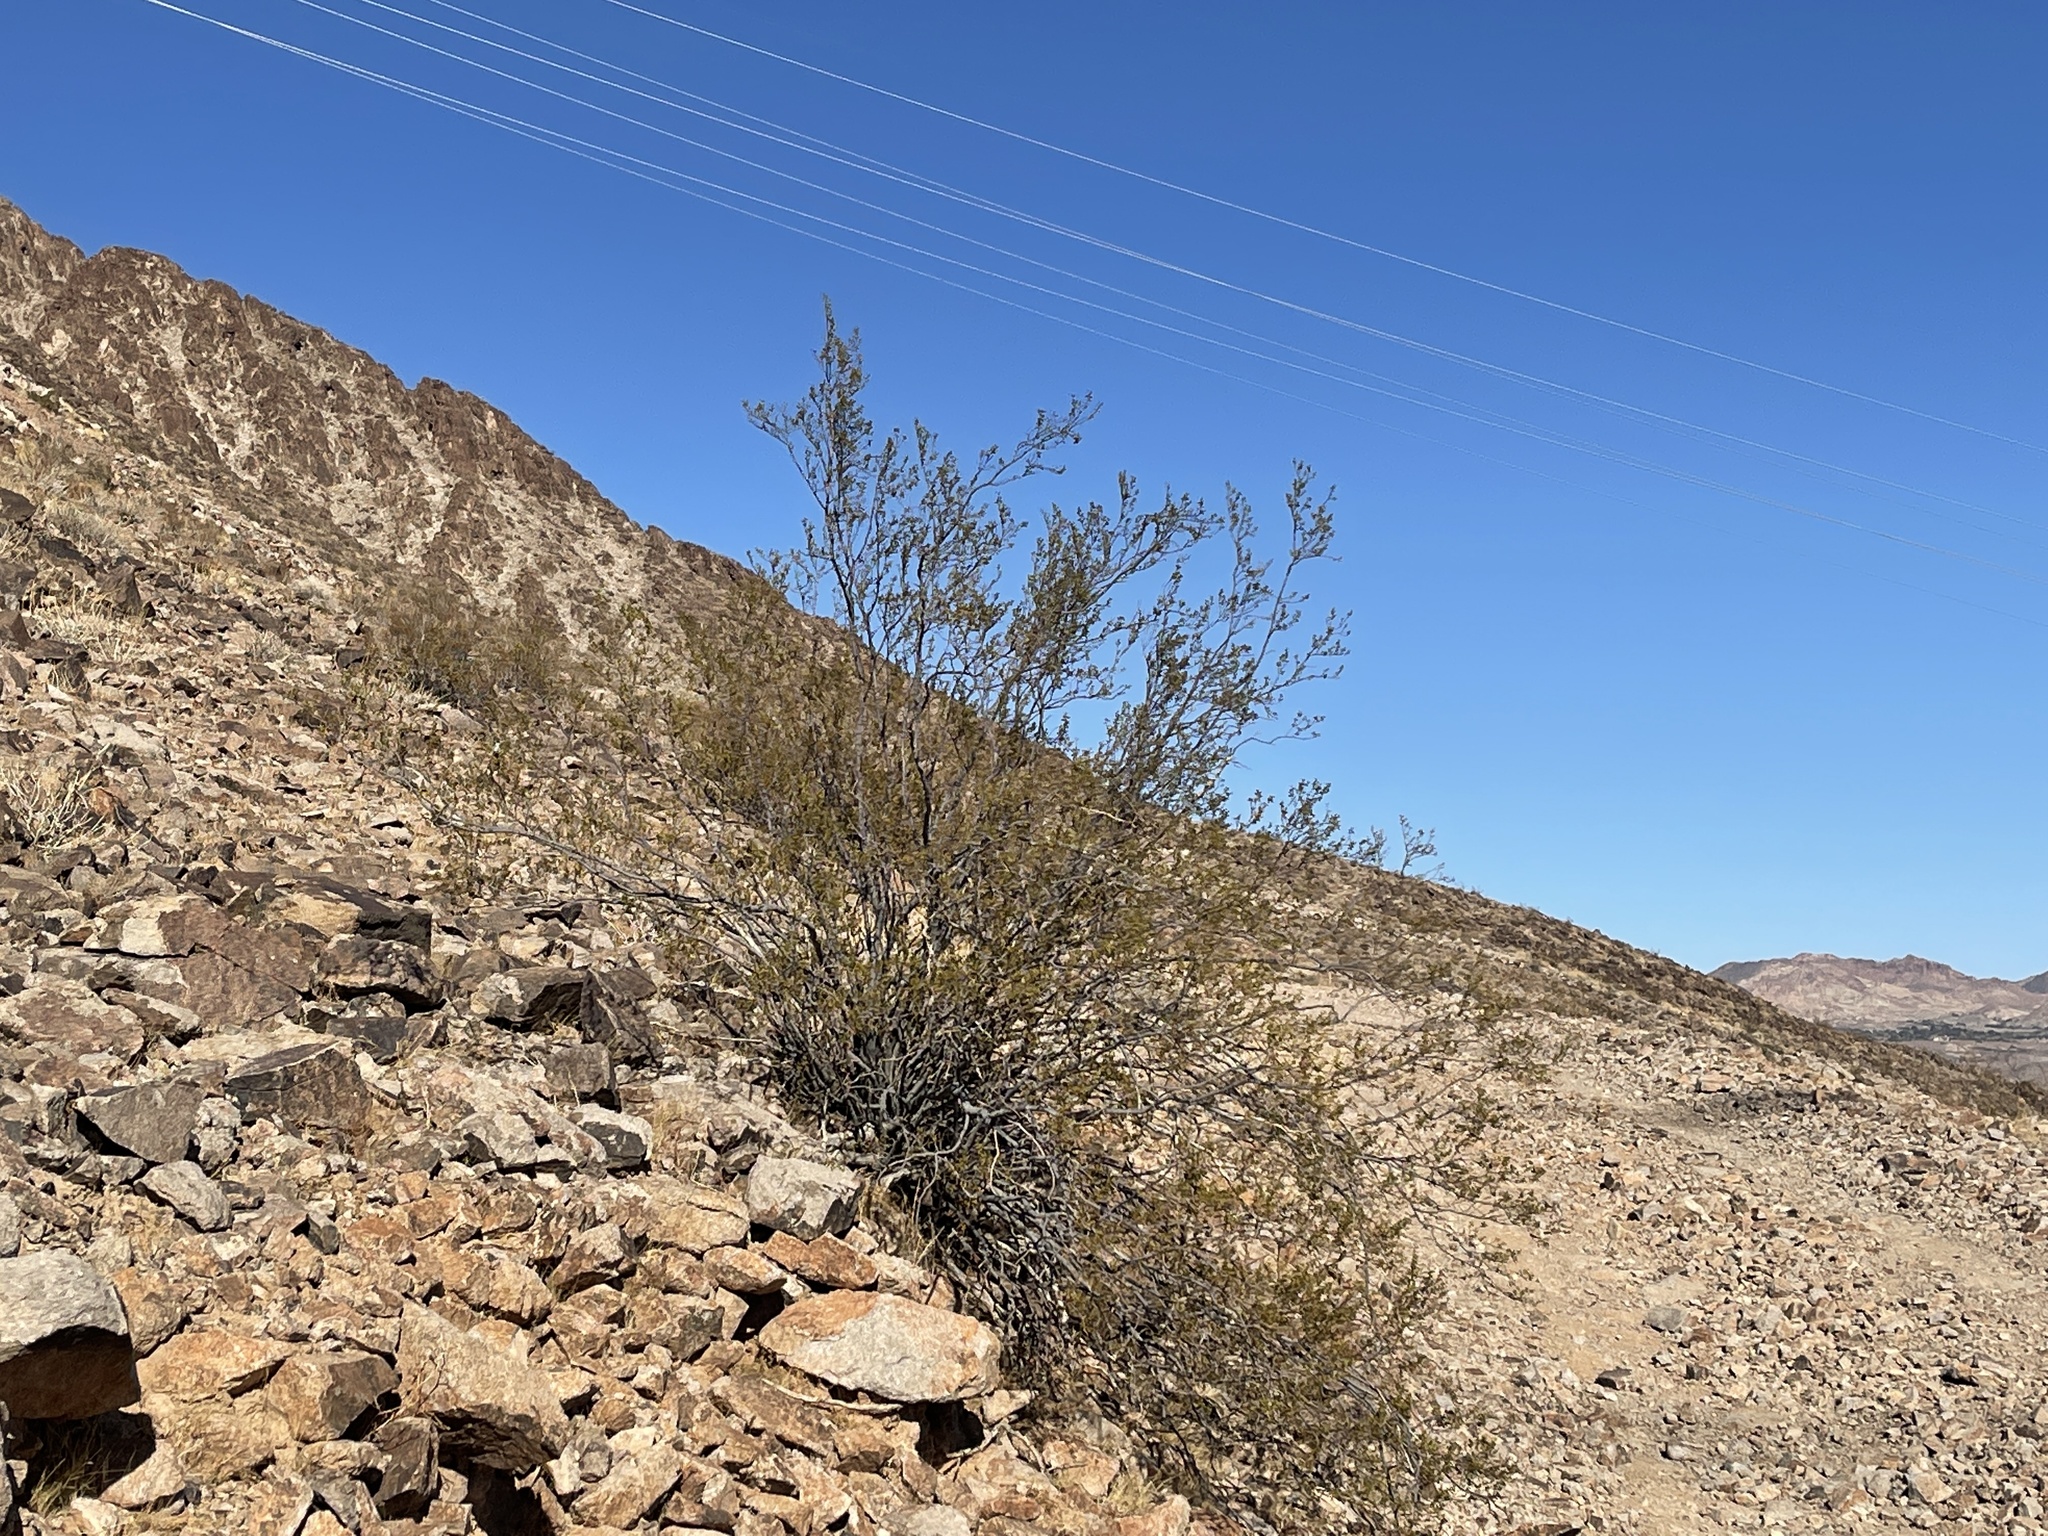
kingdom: Plantae
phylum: Tracheophyta
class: Magnoliopsida
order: Zygophyllales
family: Zygophyllaceae
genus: Larrea
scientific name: Larrea tridentata
